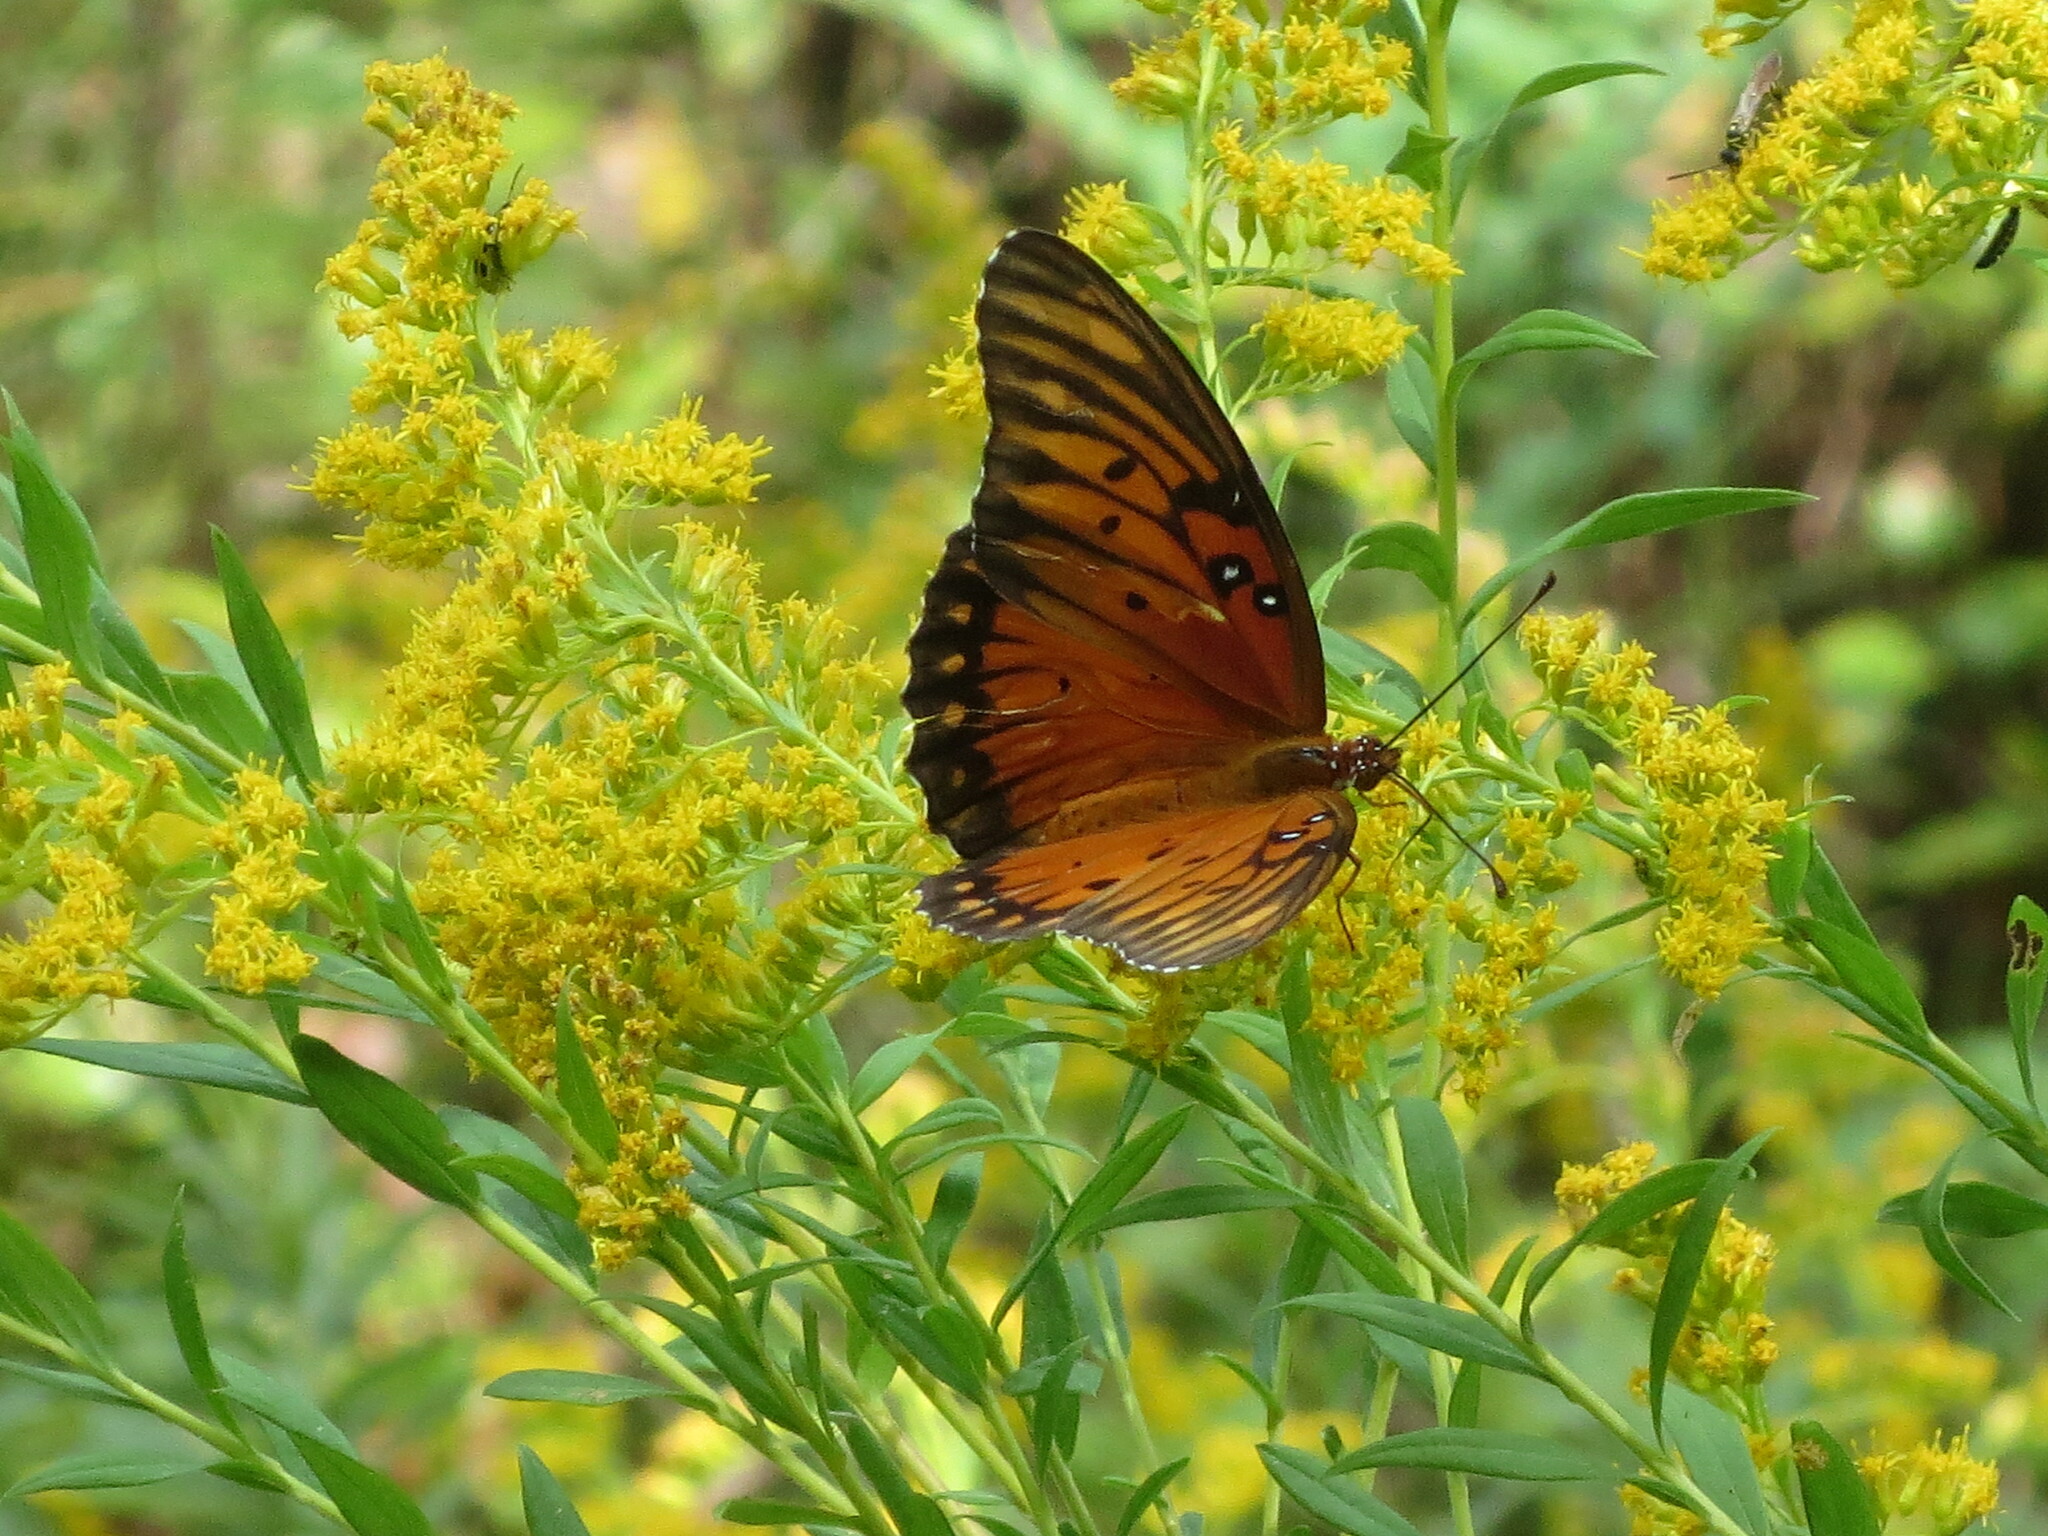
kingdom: Animalia
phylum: Arthropoda
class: Insecta
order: Lepidoptera
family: Nymphalidae
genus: Dione
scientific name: Dione vanillae
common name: Gulf fritillary
